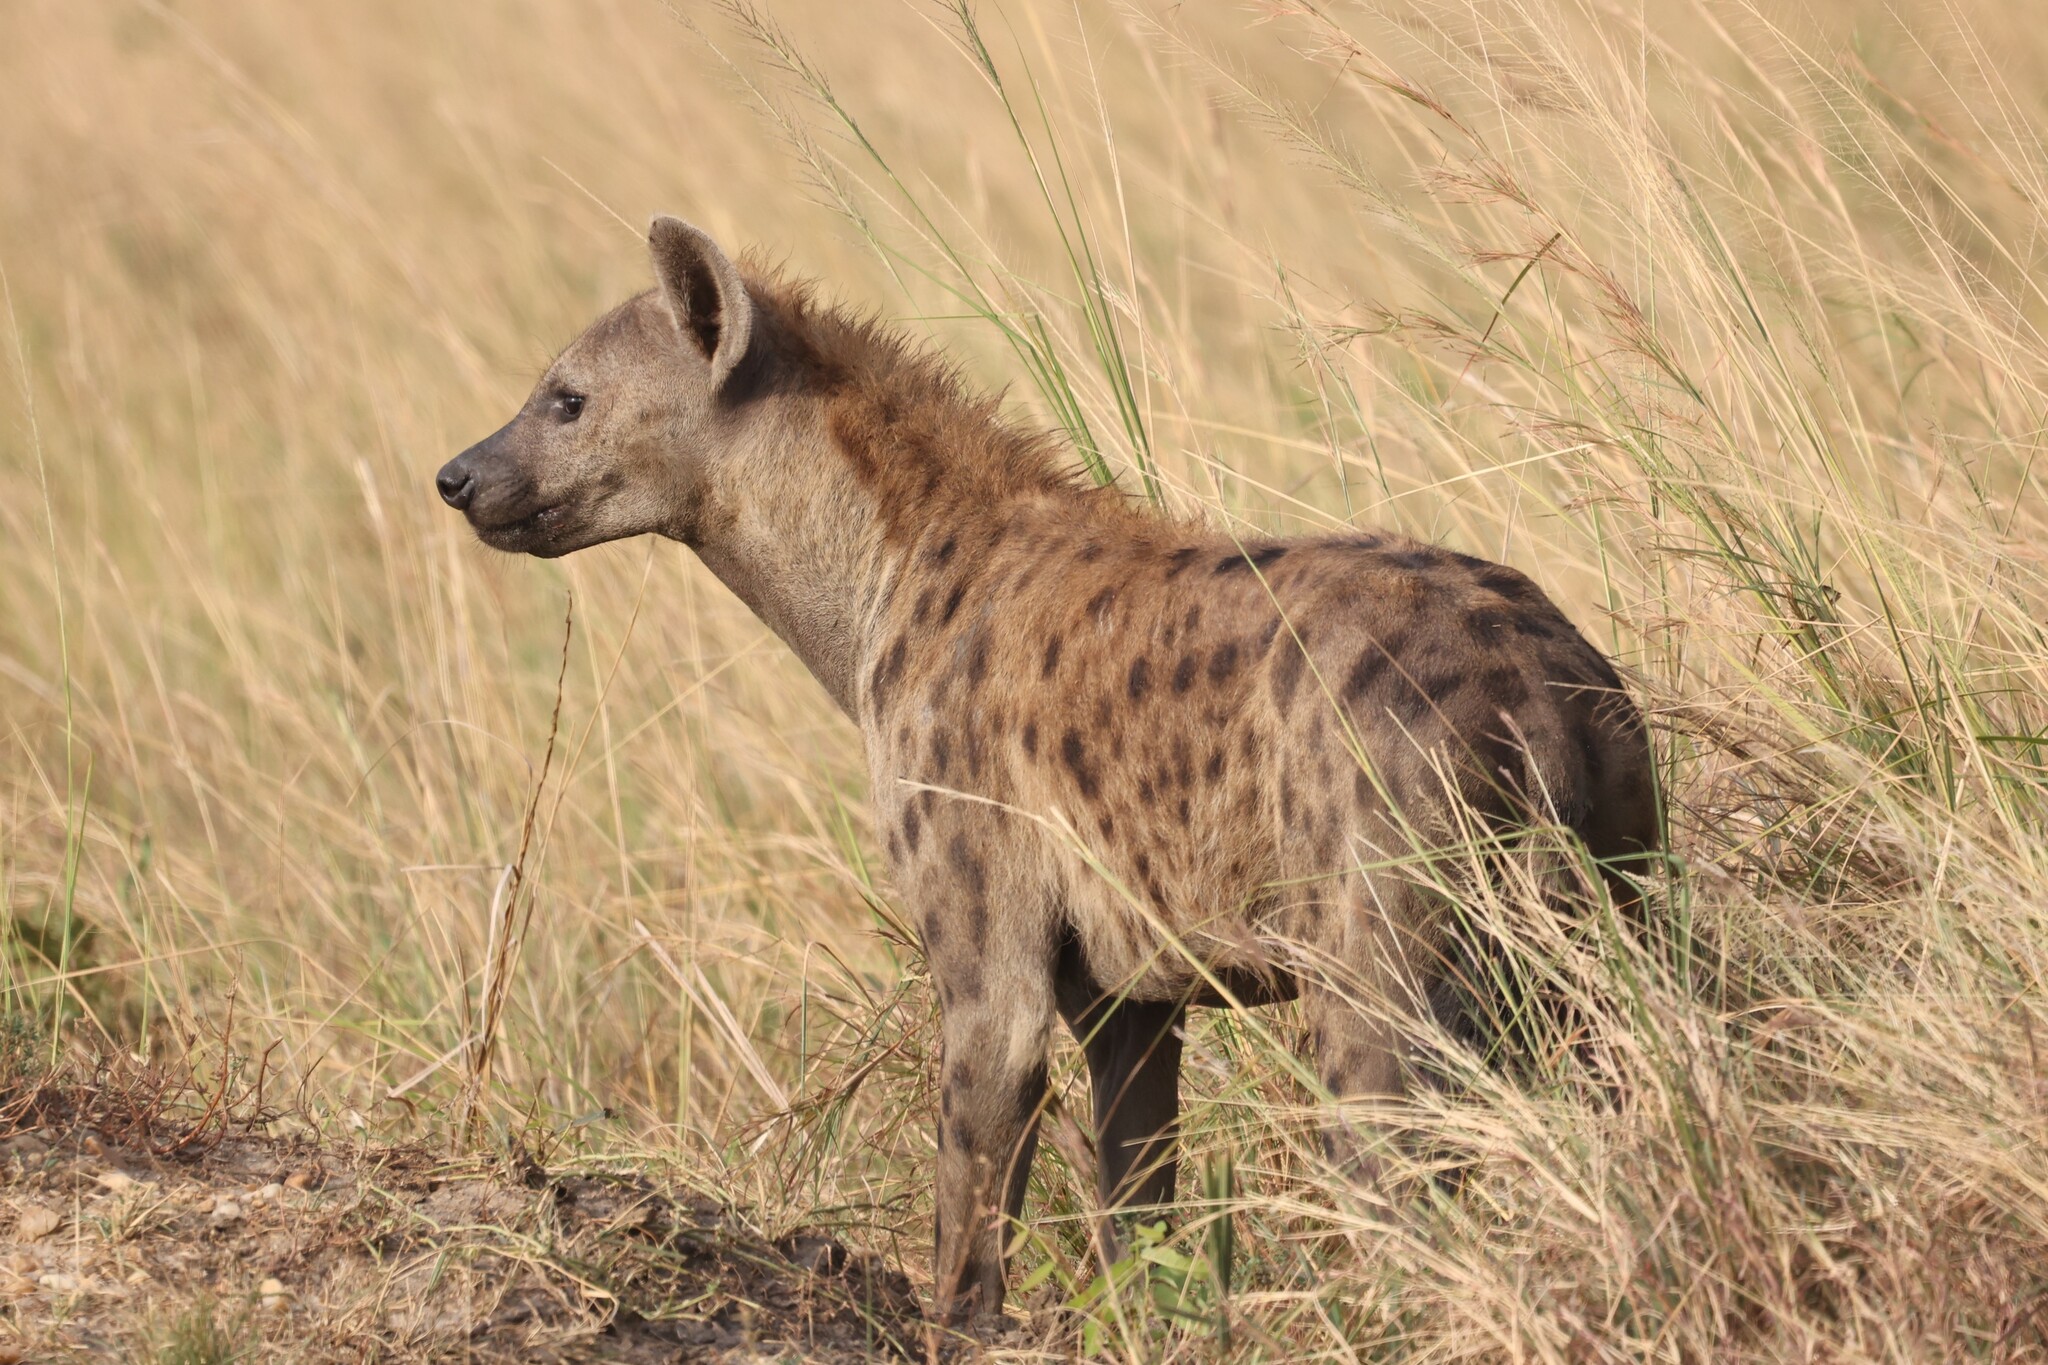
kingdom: Animalia
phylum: Chordata
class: Mammalia
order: Carnivora
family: Hyaenidae
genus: Crocuta
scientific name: Crocuta crocuta
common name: Spotted hyaena
